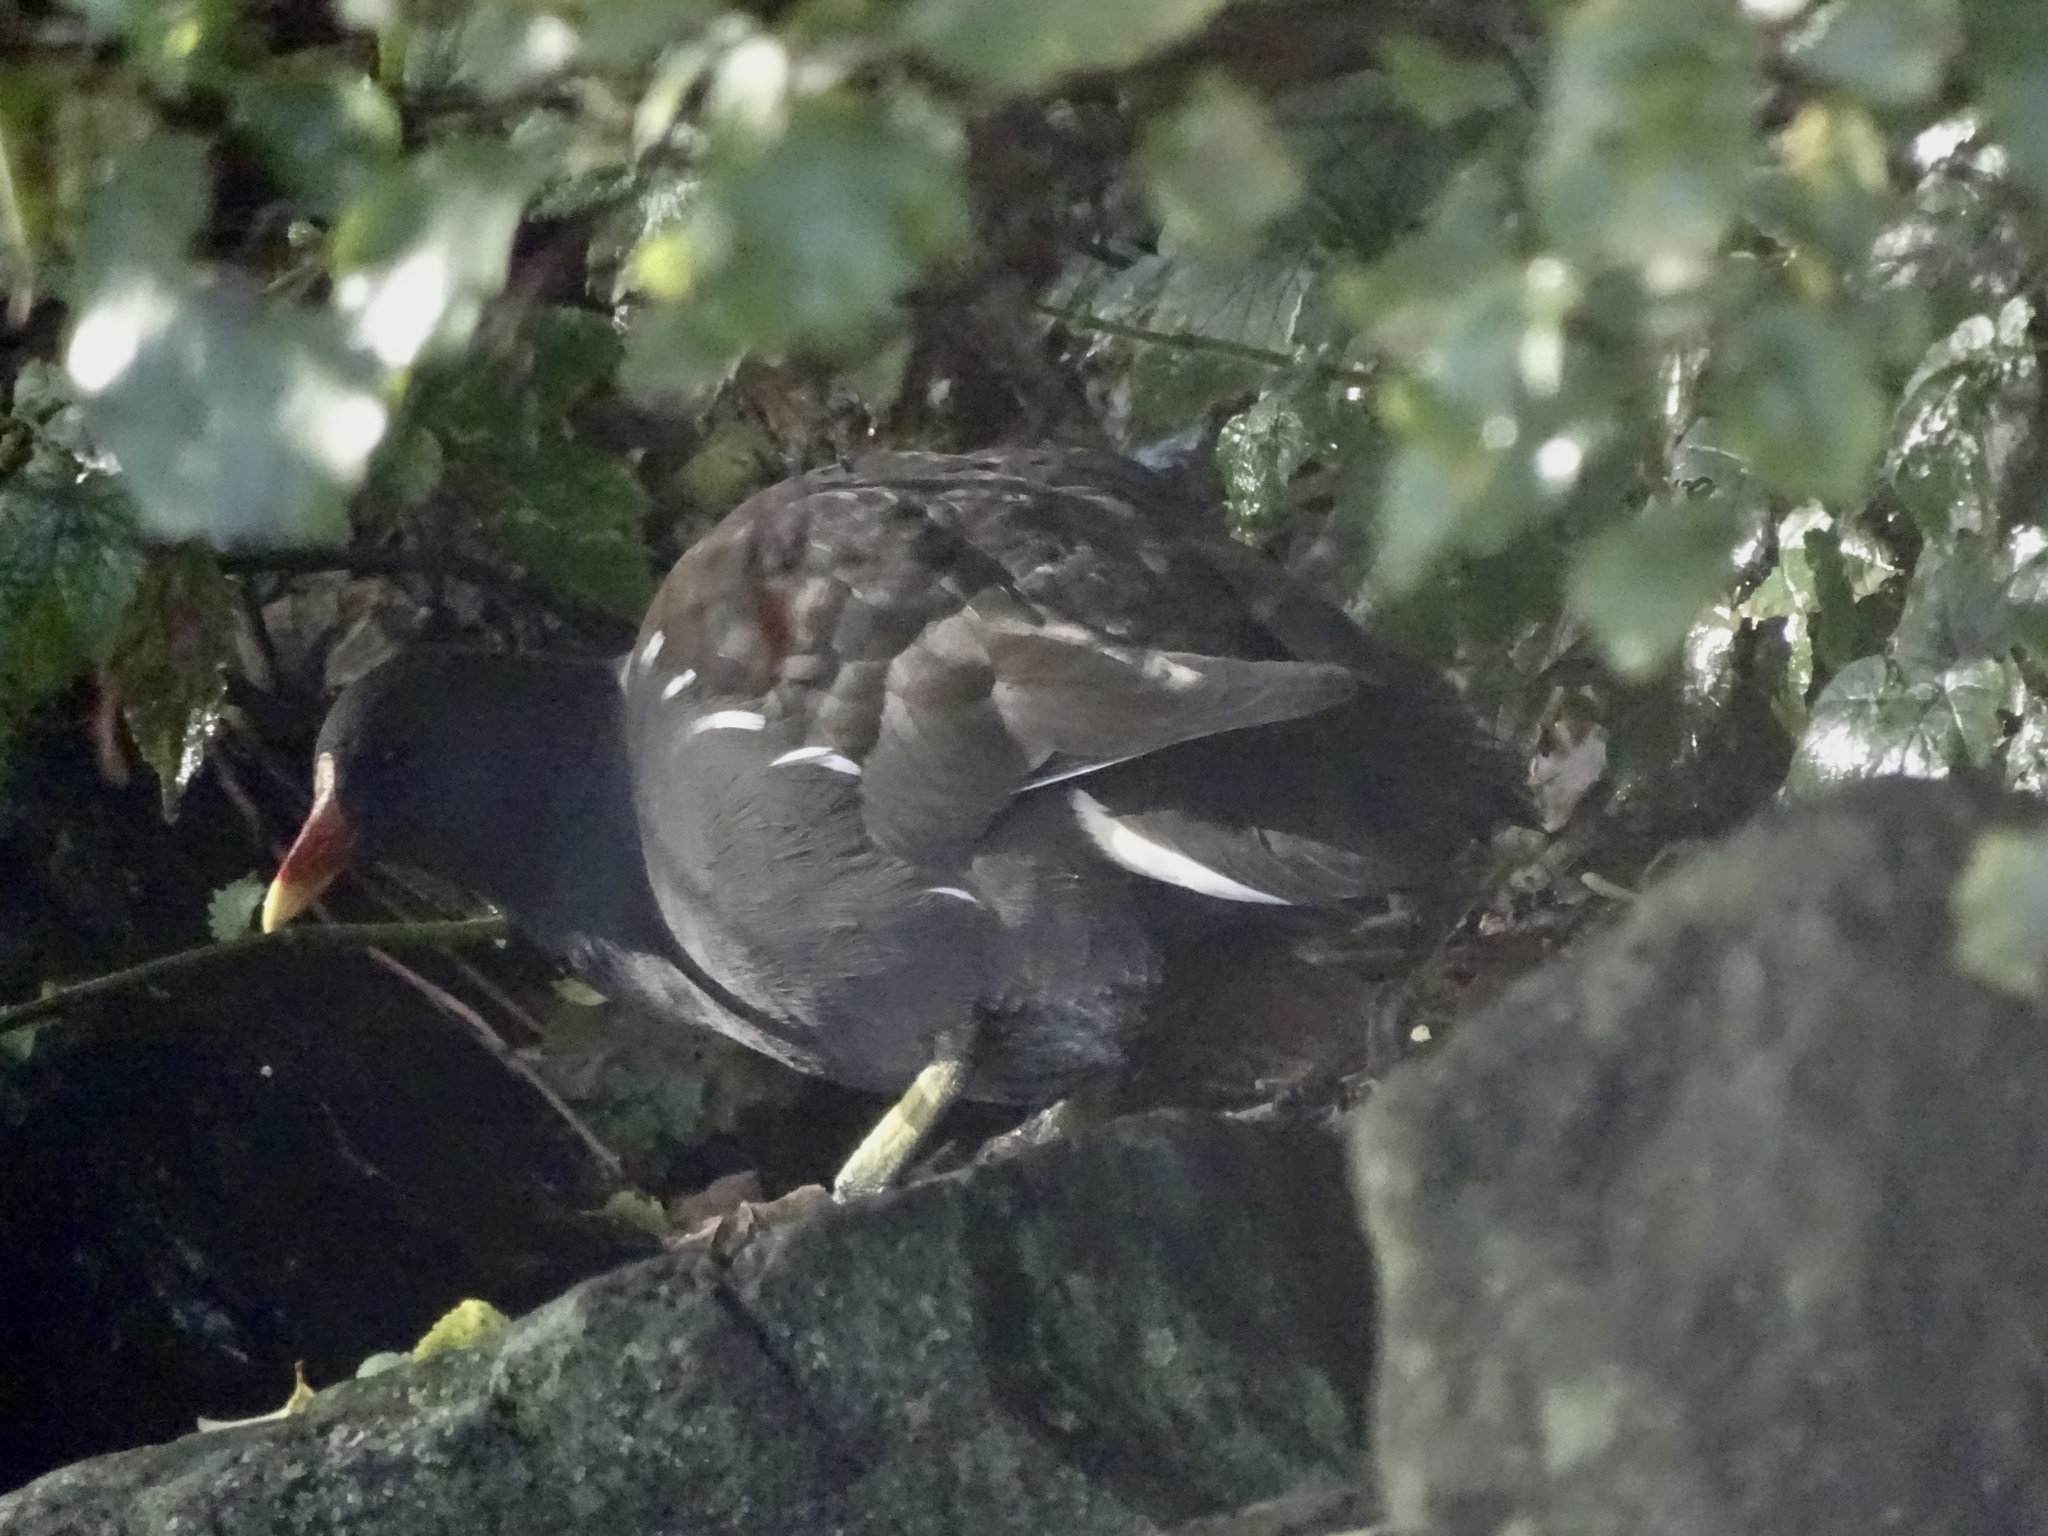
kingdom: Animalia
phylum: Chordata
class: Aves
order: Gruiformes
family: Rallidae
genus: Gallinula
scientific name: Gallinula chloropus
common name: Common moorhen
